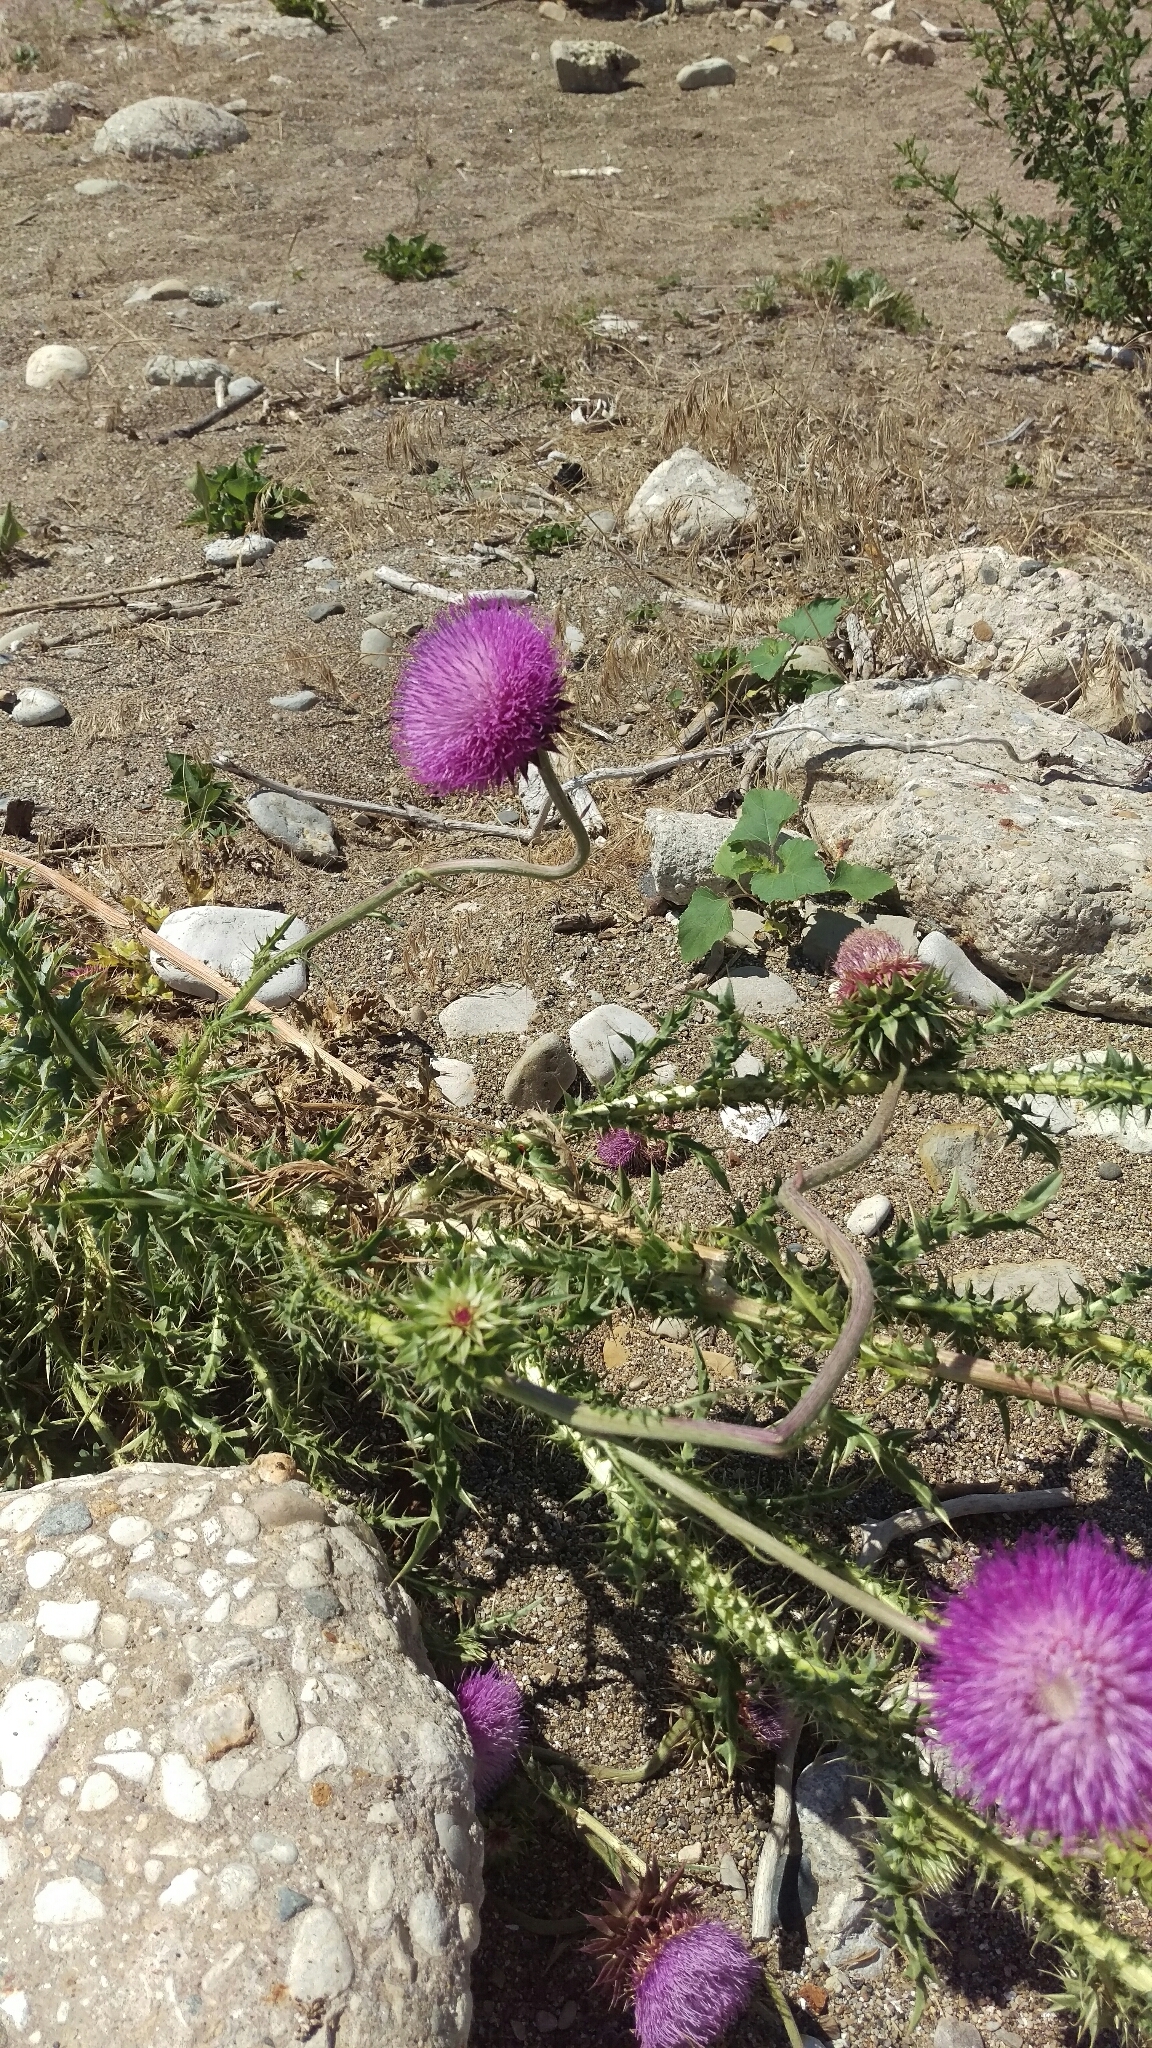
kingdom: Plantae
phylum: Tracheophyta
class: Magnoliopsida
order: Asterales
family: Asteraceae
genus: Carduus
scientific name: Carduus nutans
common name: Musk thistle
